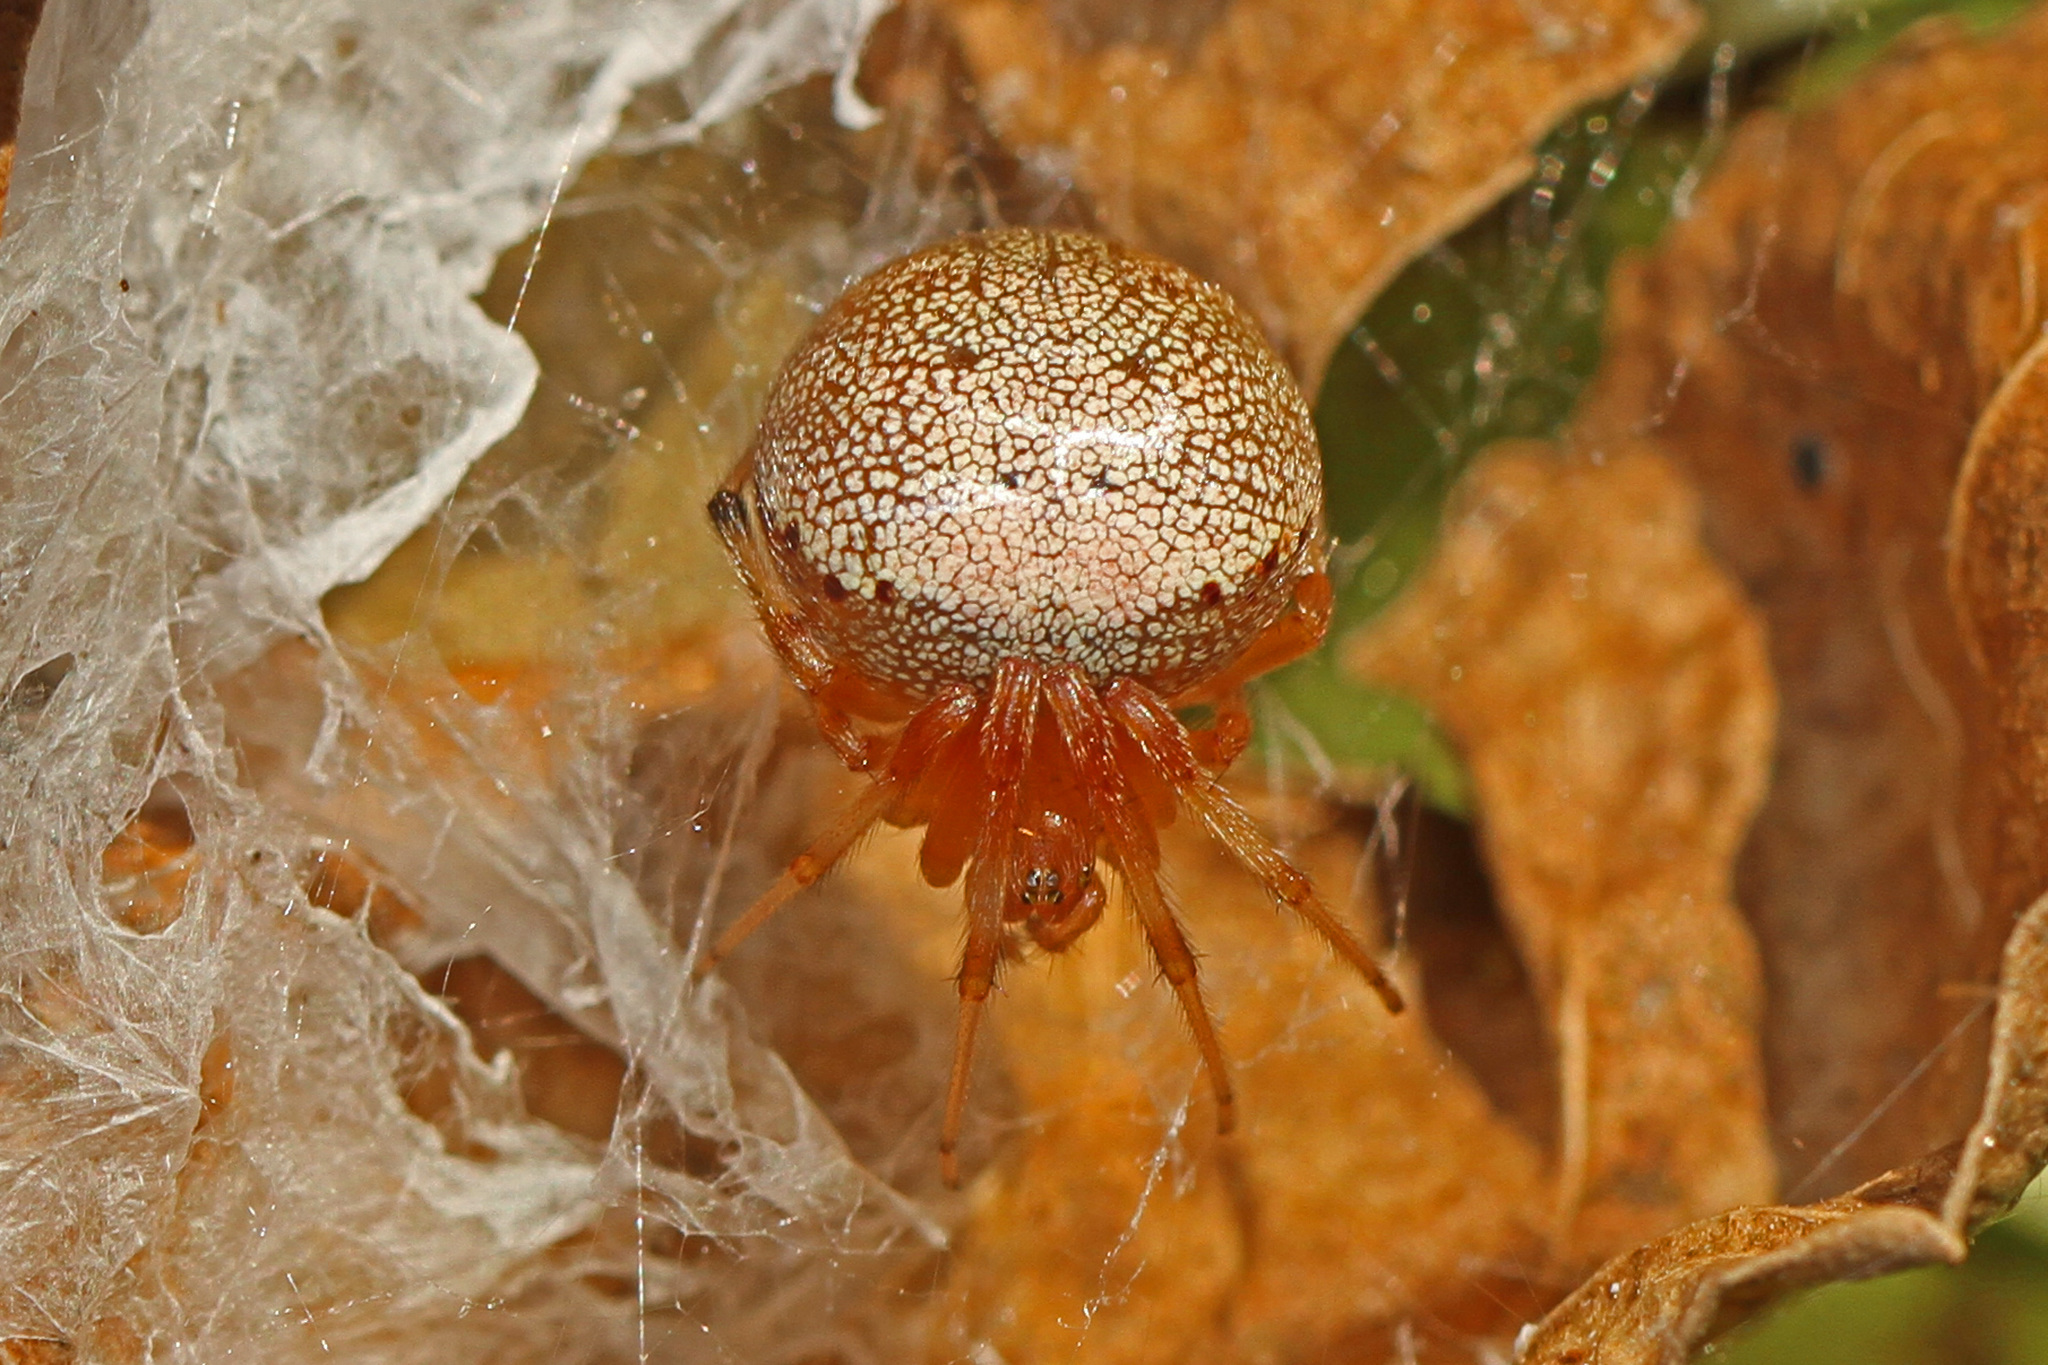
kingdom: Animalia
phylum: Arthropoda
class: Arachnida
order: Araneae
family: Araneidae
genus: Araneus
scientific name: Araneus thaddeus
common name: Lattice orbweaver
